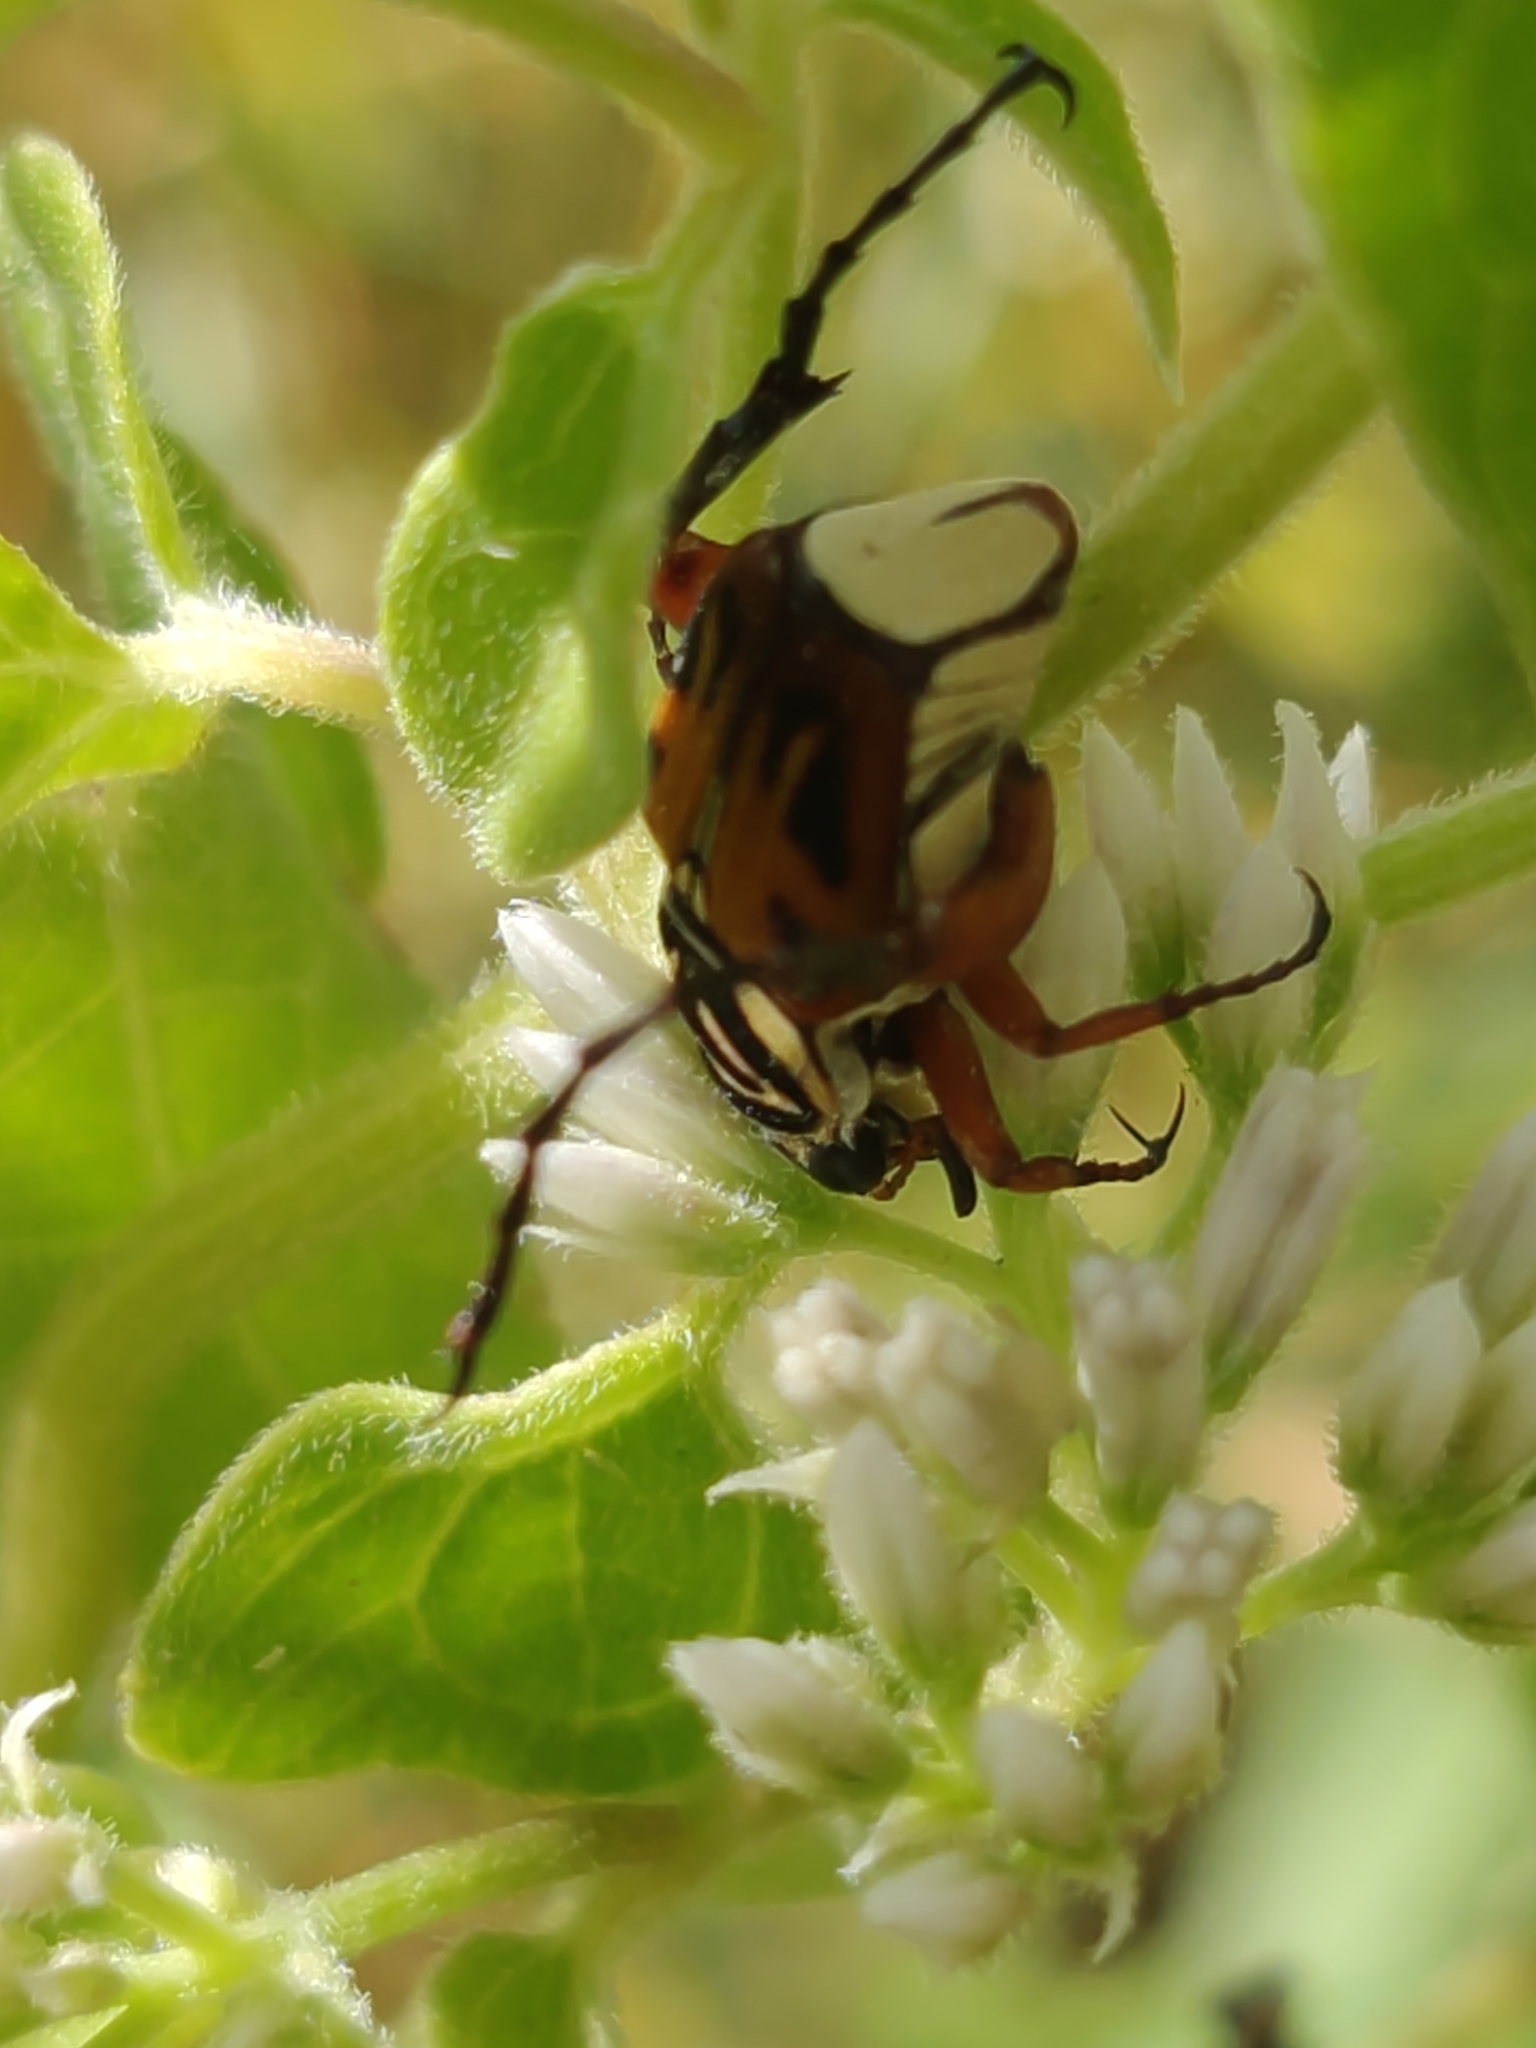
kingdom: Animalia
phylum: Arthropoda
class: Insecta
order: Coleoptera
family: Scarabaeidae
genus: Trigonopeltastes
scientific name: Trigonopeltastes delta
